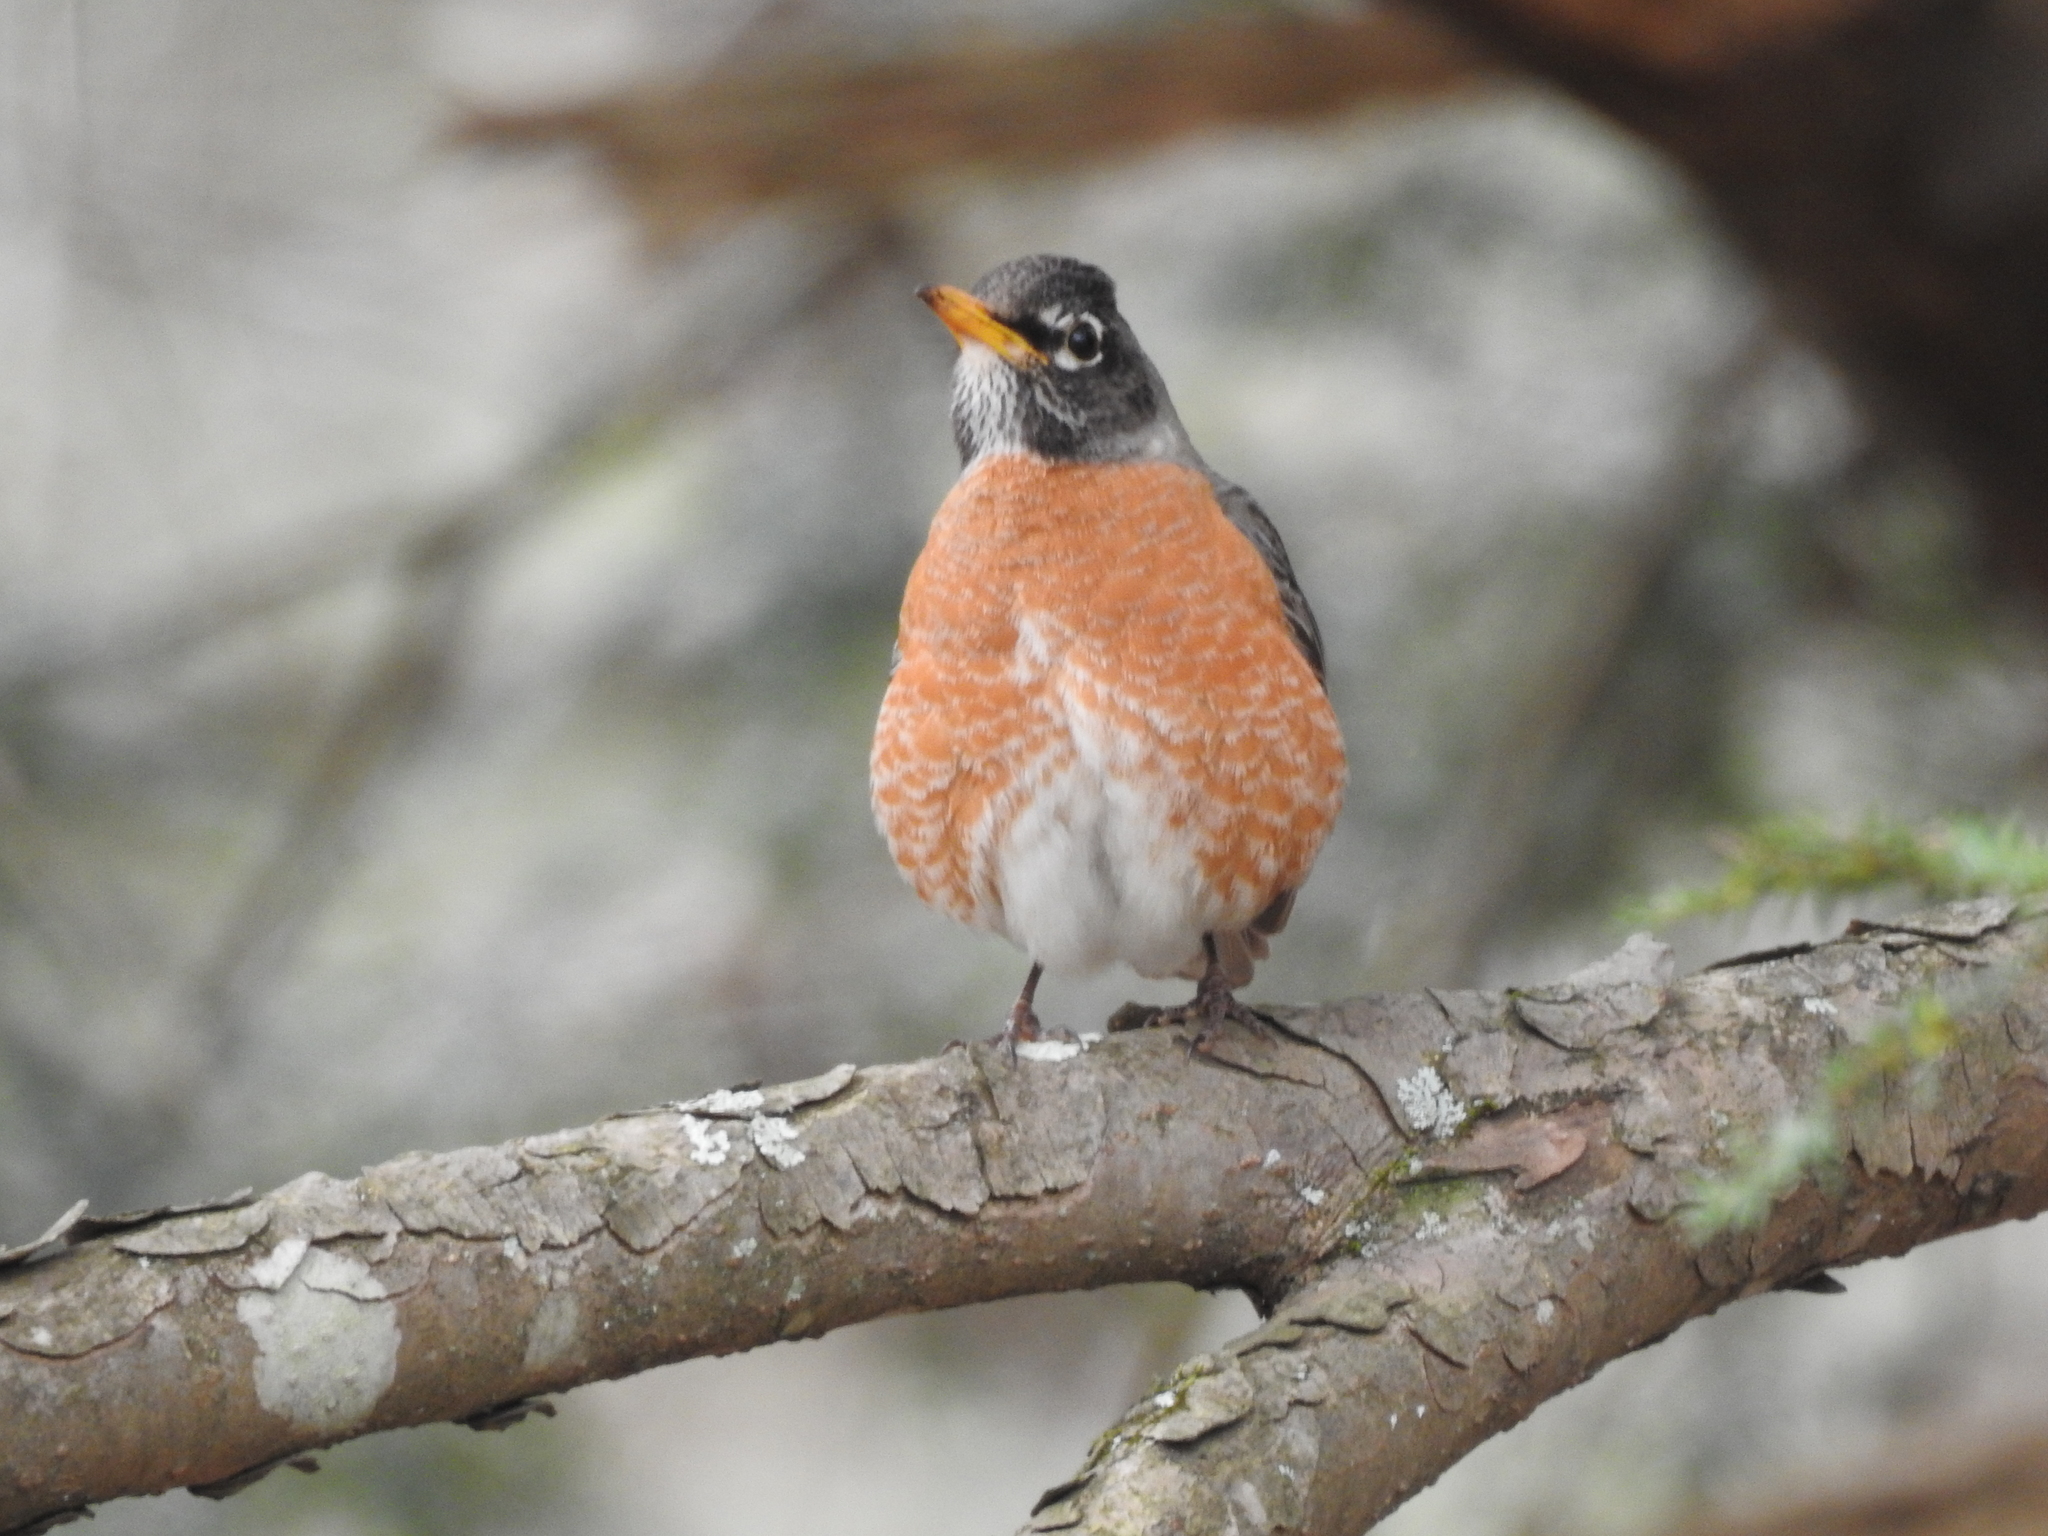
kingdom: Animalia
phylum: Chordata
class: Aves
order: Passeriformes
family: Turdidae
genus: Turdus
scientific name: Turdus migratorius
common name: American robin
